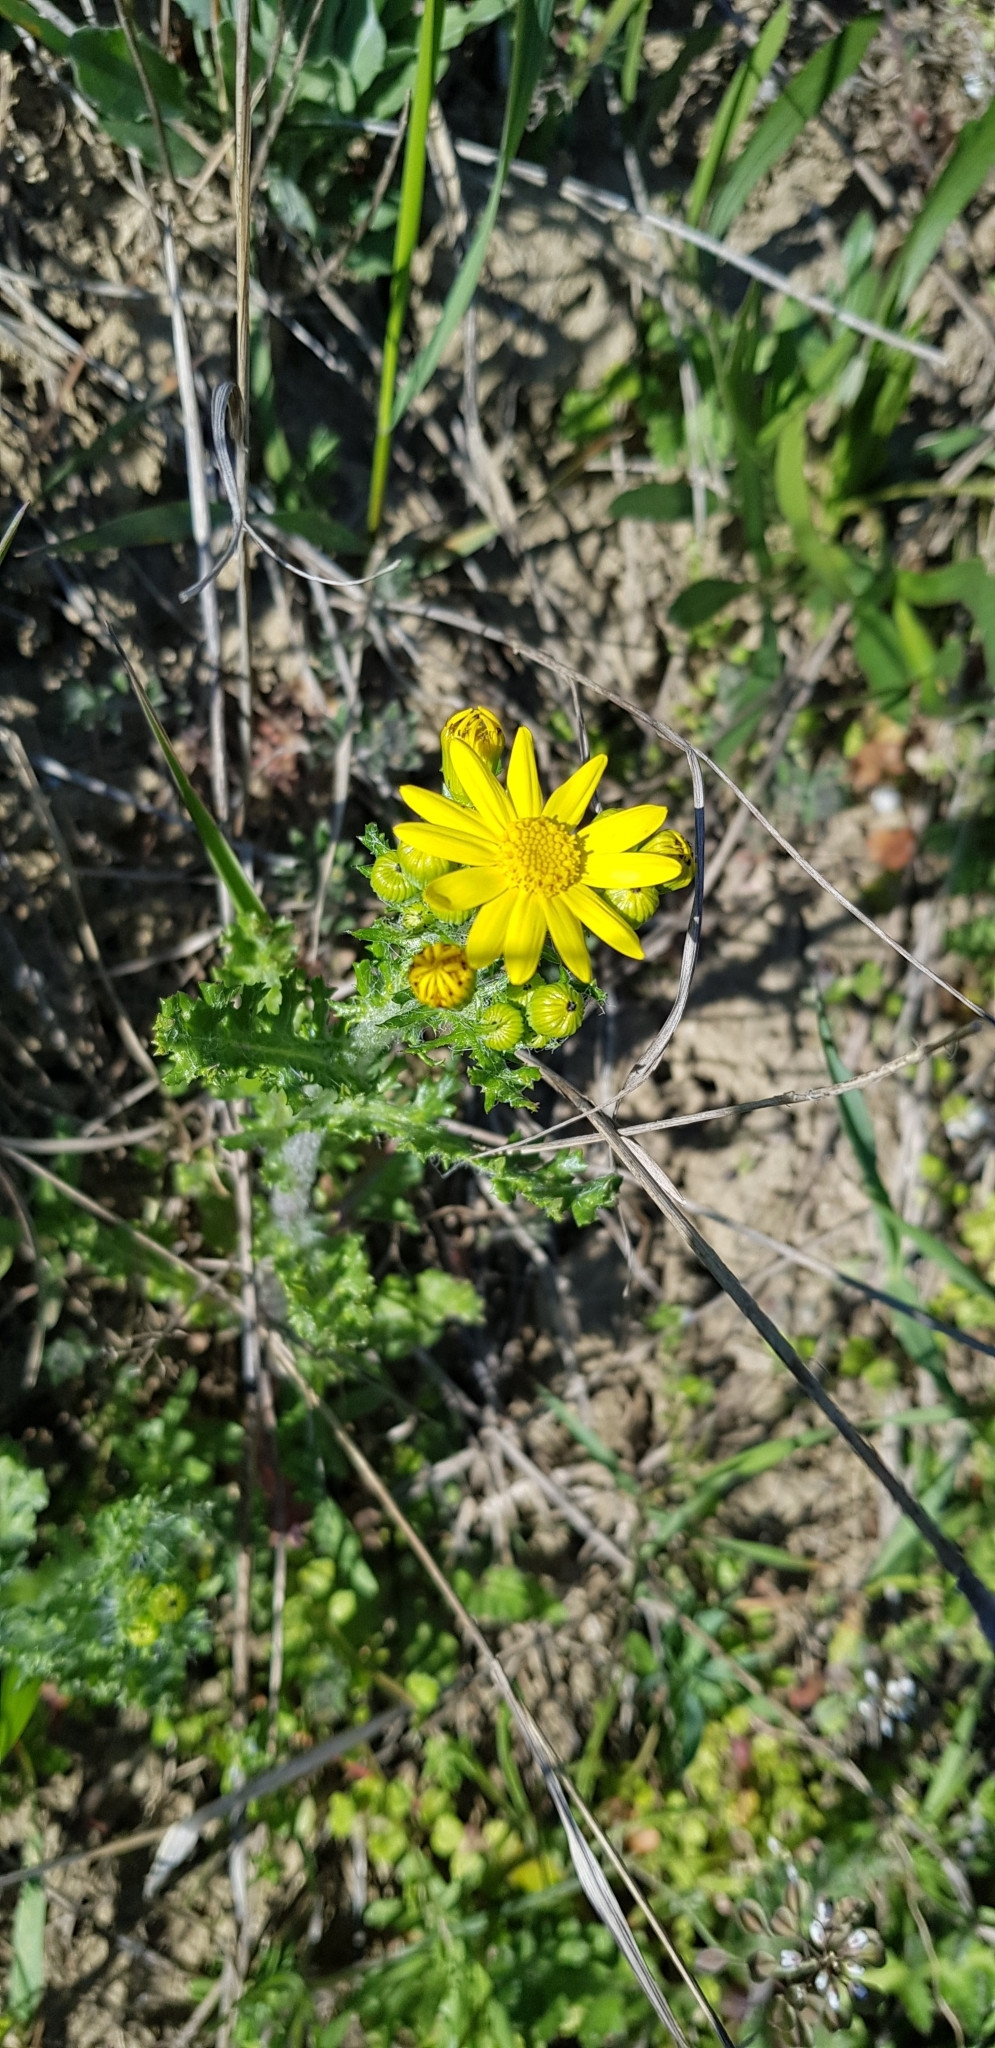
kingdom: Plantae
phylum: Tracheophyta
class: Magnoliopsida
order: Asterales
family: Asteraceae
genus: Senecio
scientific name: Senecio vernalis
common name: Eastern groundsel
